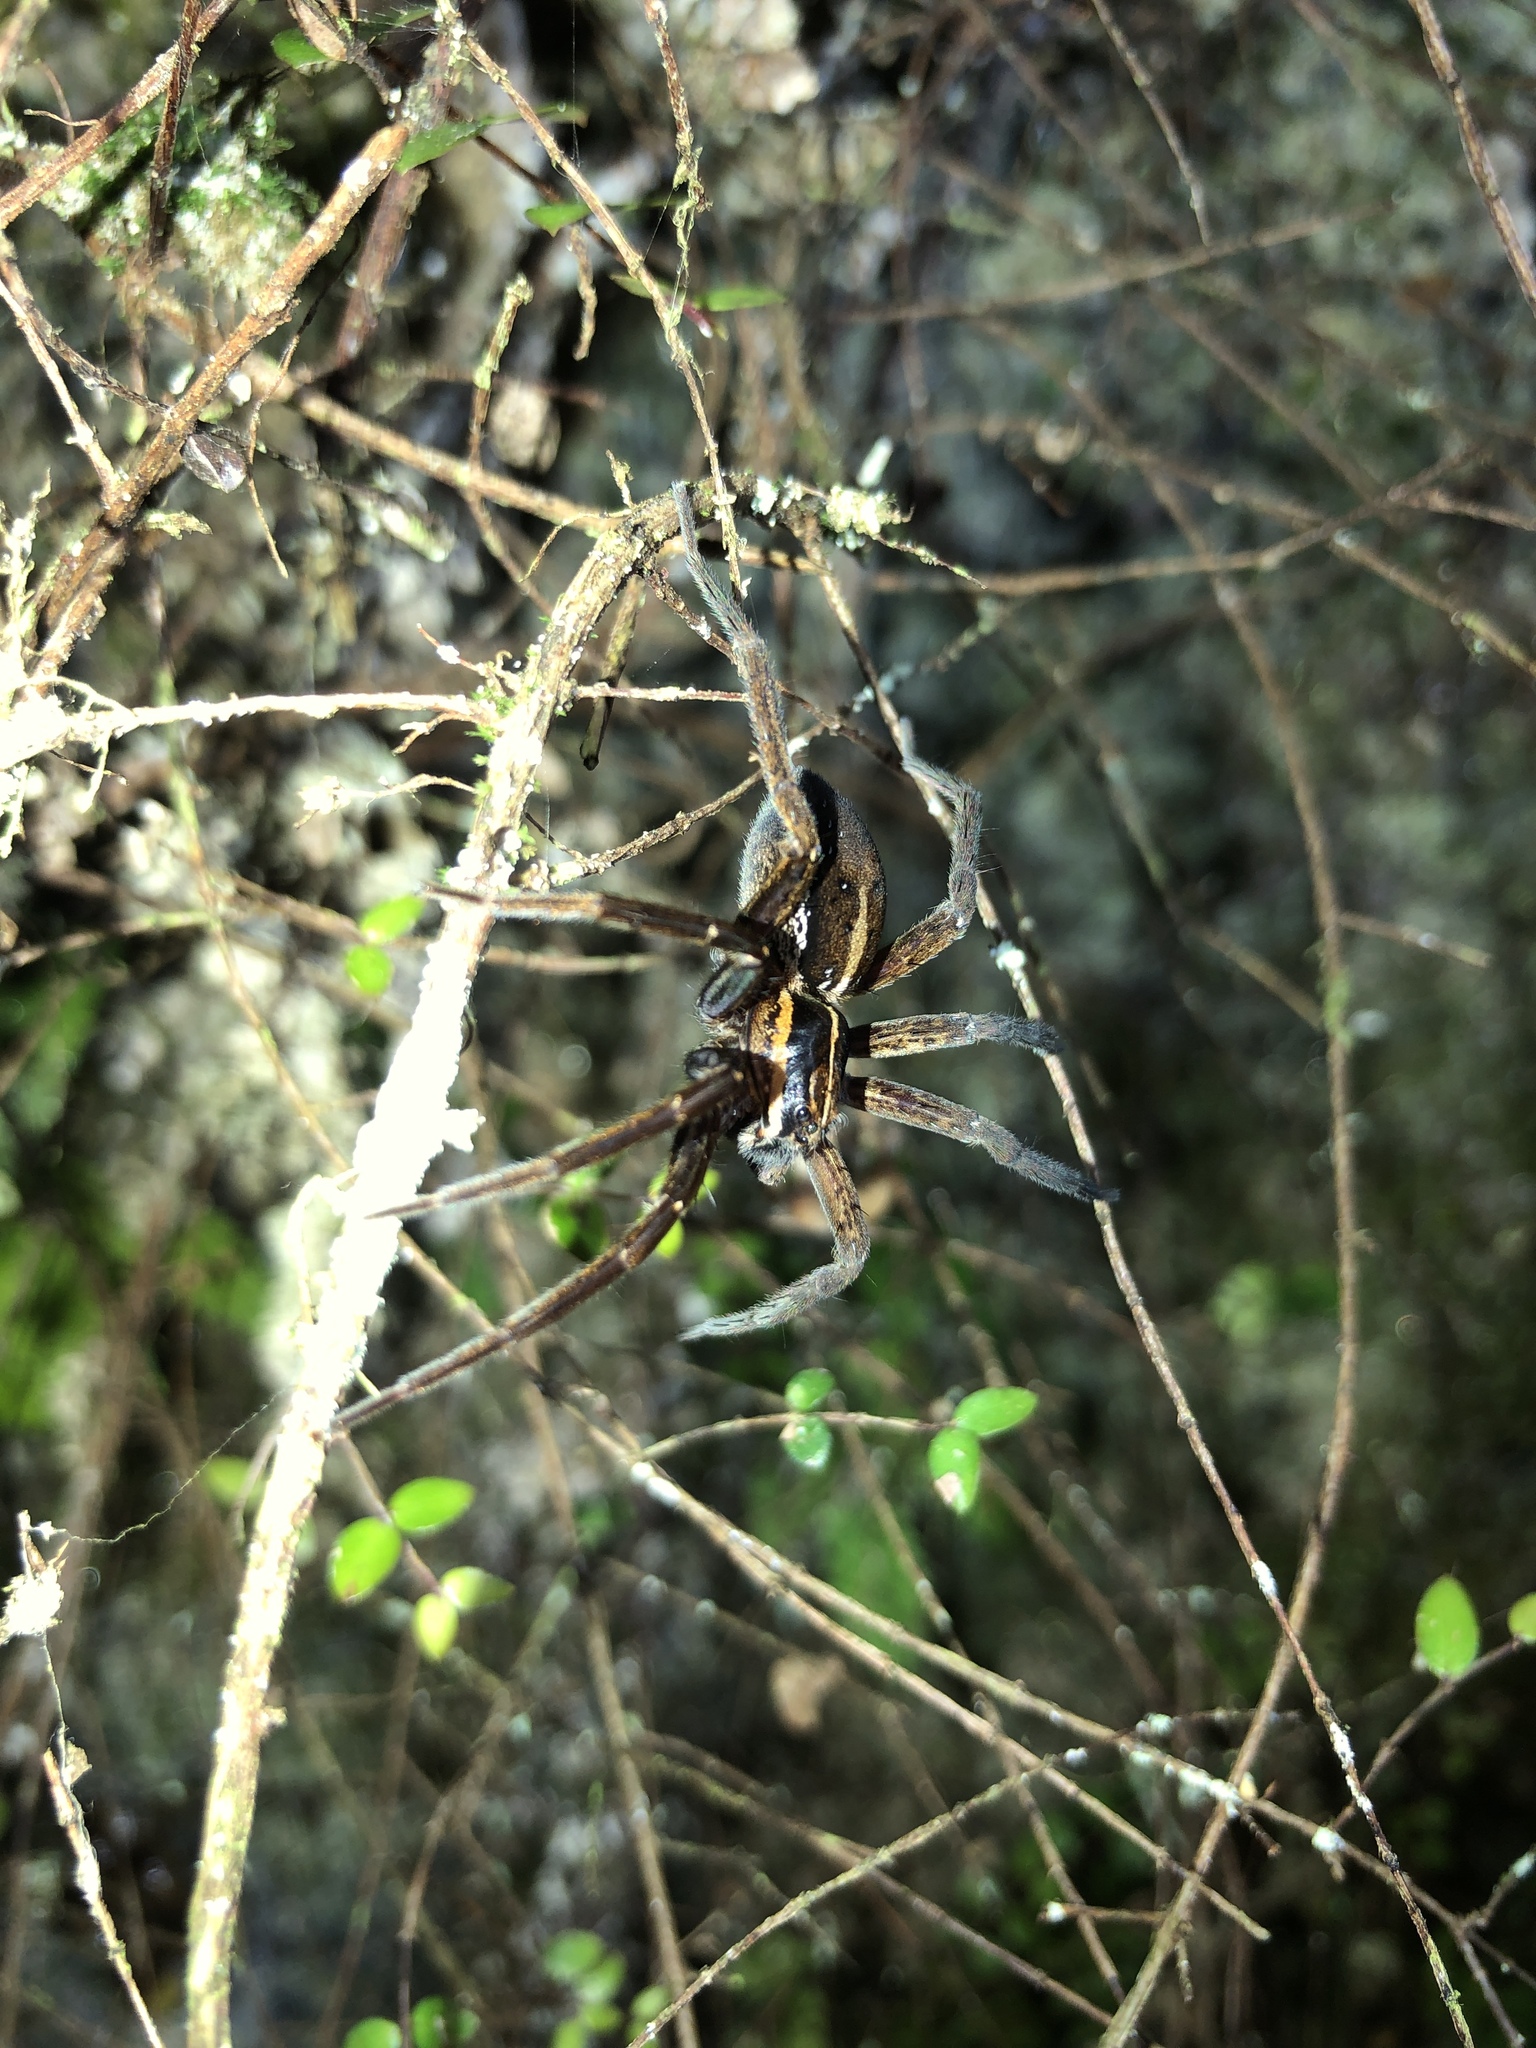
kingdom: Animalia
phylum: Arthropoda
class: Arachnida
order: Araneae
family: Pisauridae
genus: Dolomedes
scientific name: Dolomedes minor
